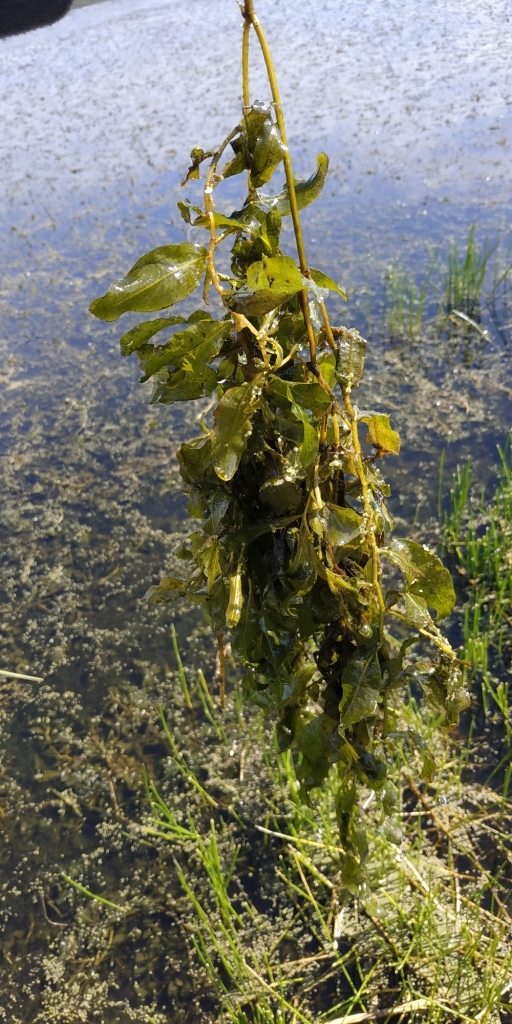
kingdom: Plantae
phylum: Tracheophyta
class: Liliopsida
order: Alismatales
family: Potamogetonaceae
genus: Potamogeton
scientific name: Potamogeton lucens
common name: Shining pondweed
